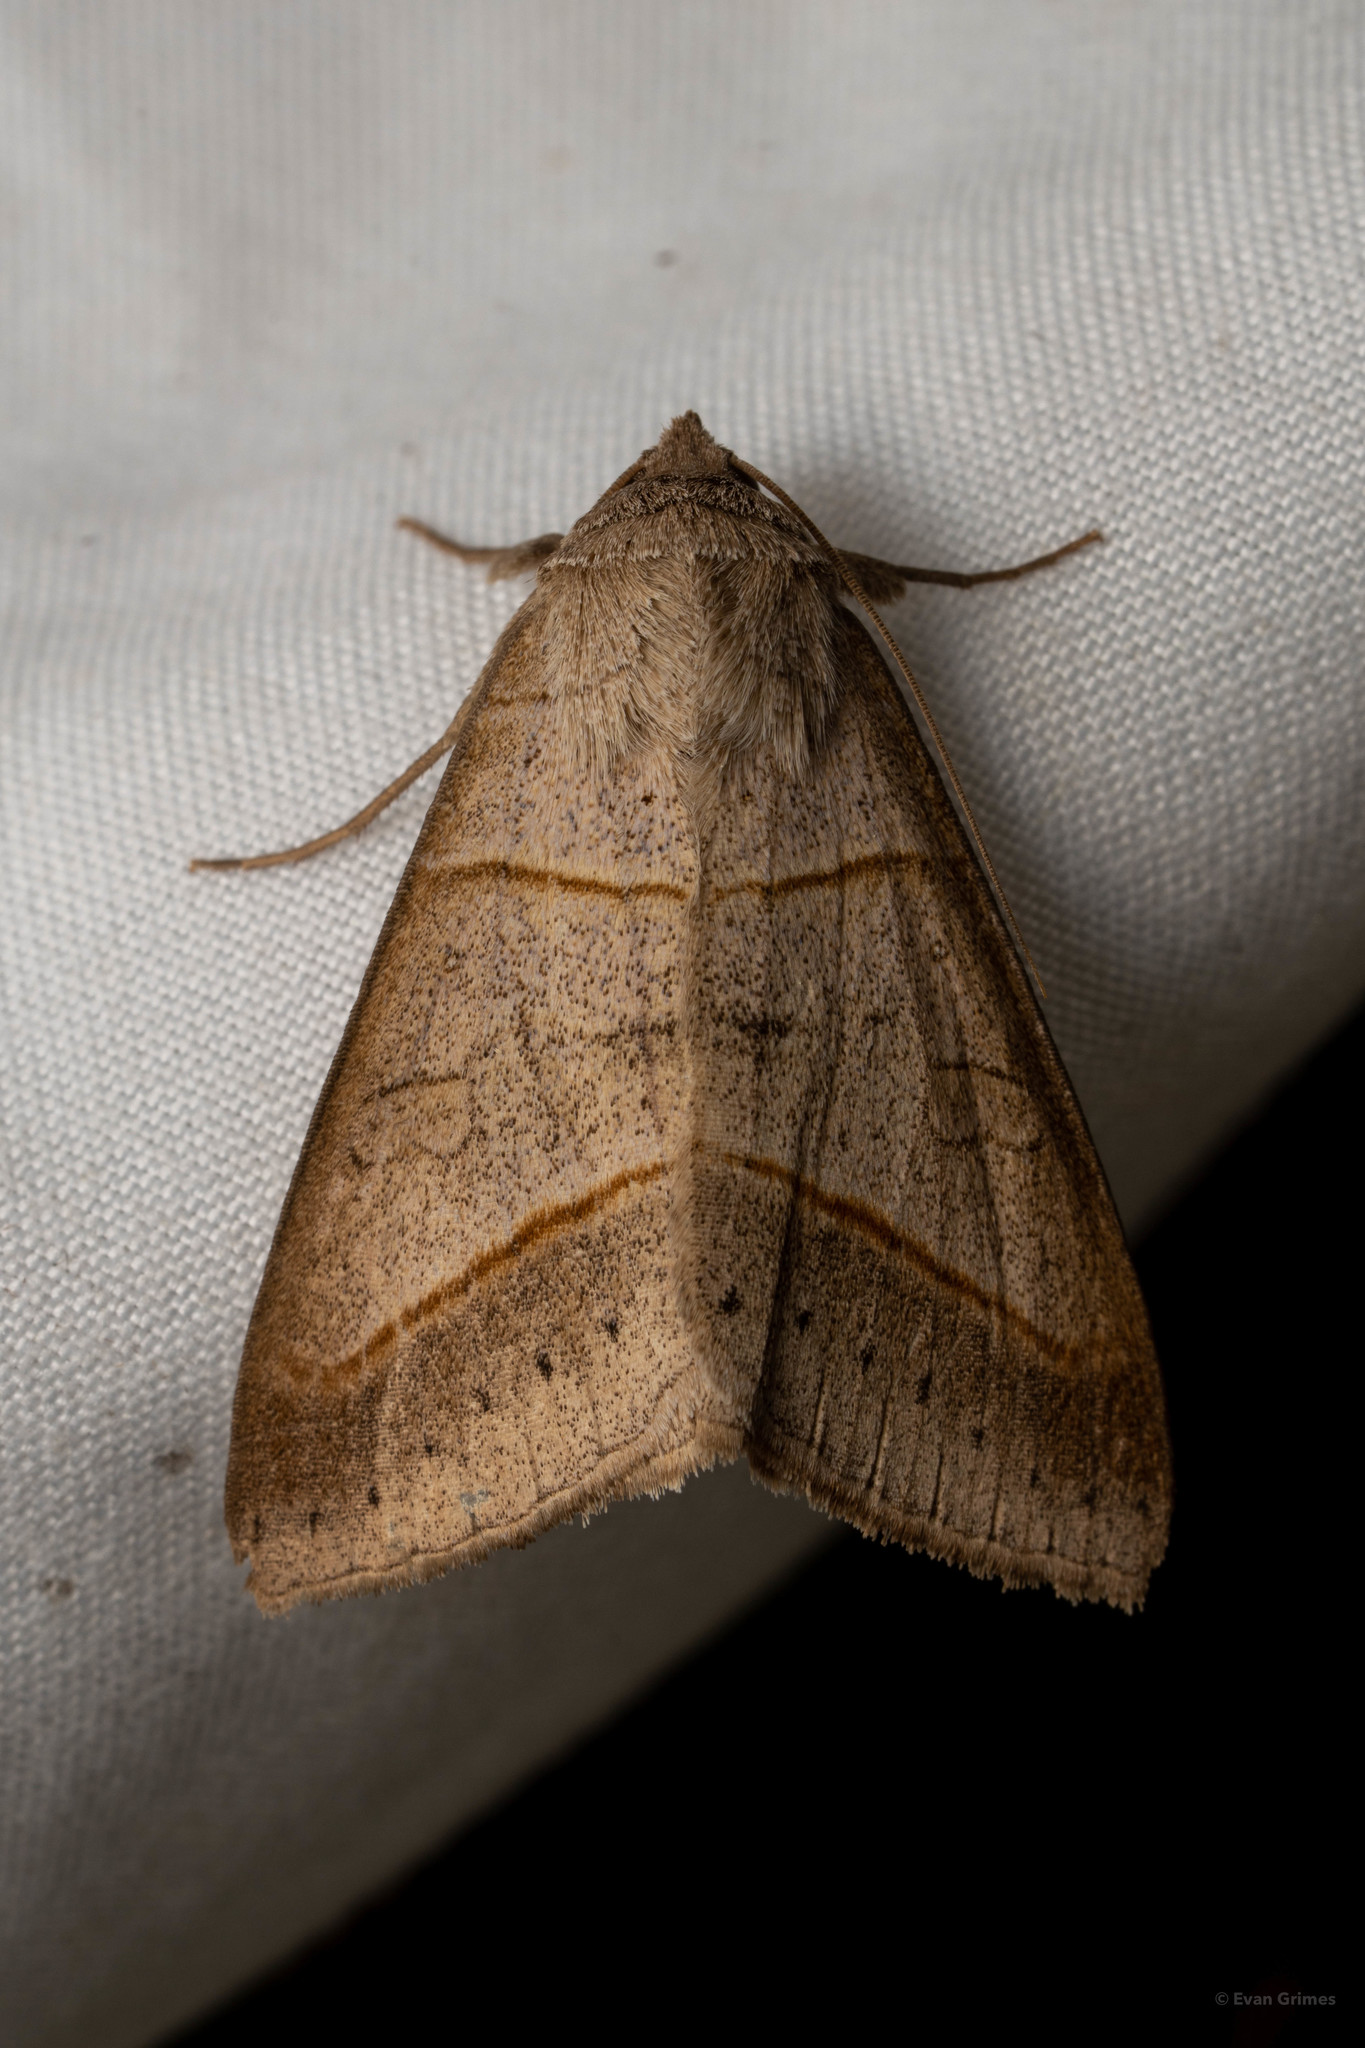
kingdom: Animalia
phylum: Arthropoda
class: Insecta
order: Lepidoptera
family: Erebidae
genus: Mocis
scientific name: Mocis texana
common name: Texas mocis moth
